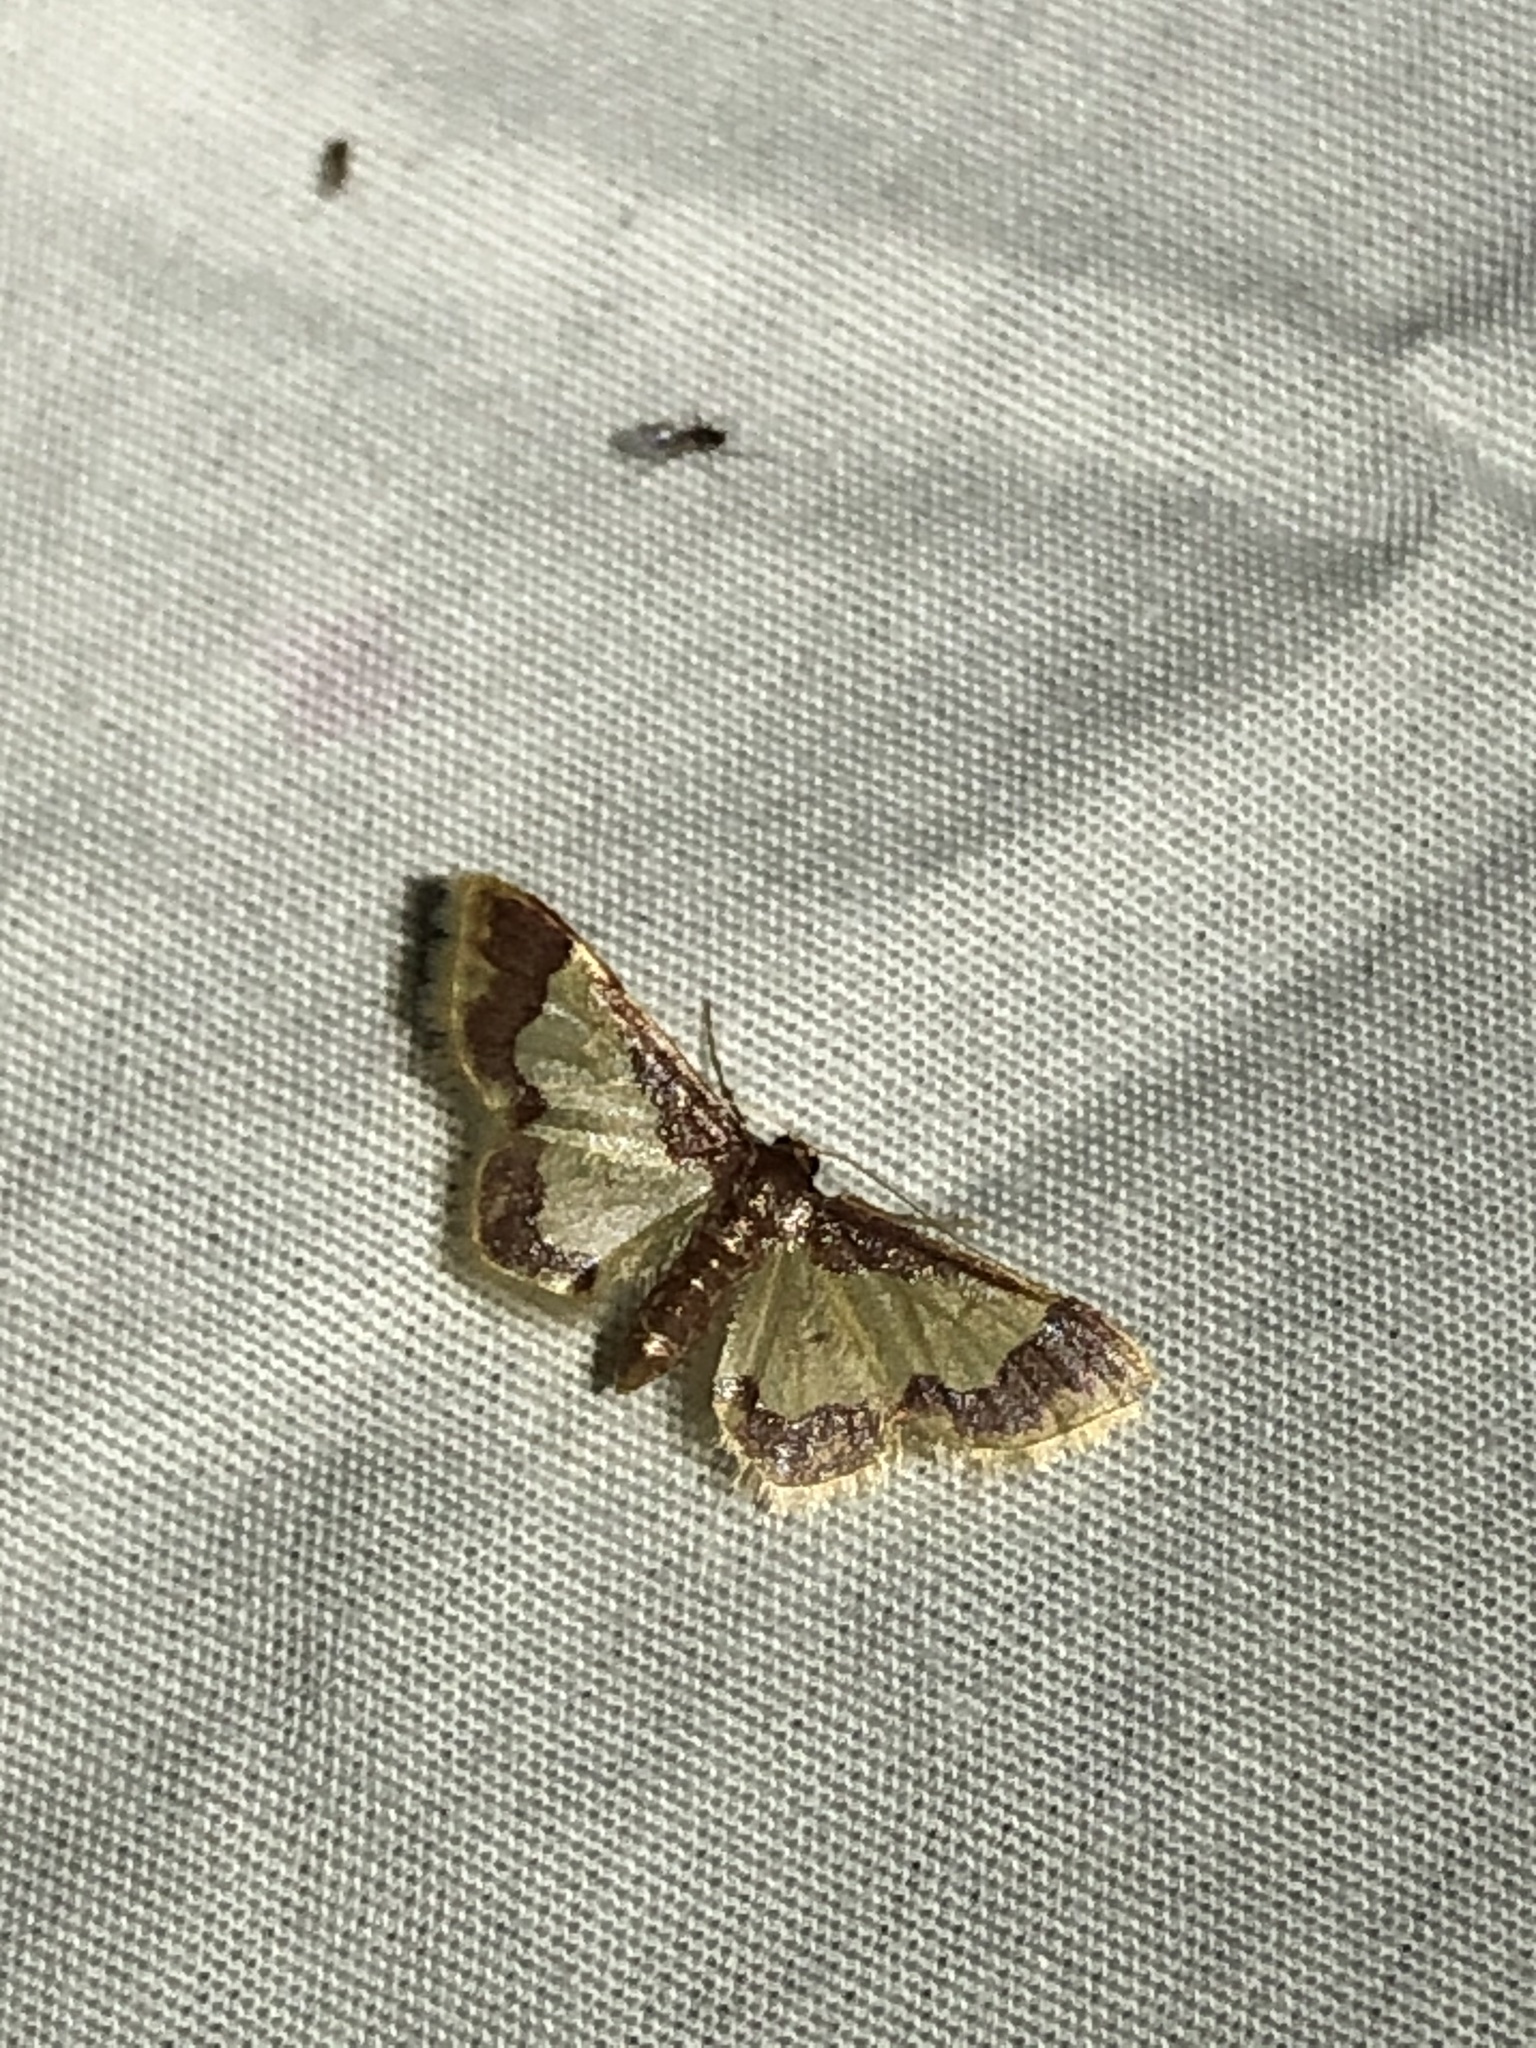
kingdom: Animalia
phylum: Arthropoda
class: Insecta
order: Lepidoptera
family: Geometridae
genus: Idaea
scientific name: Idaea basinta
